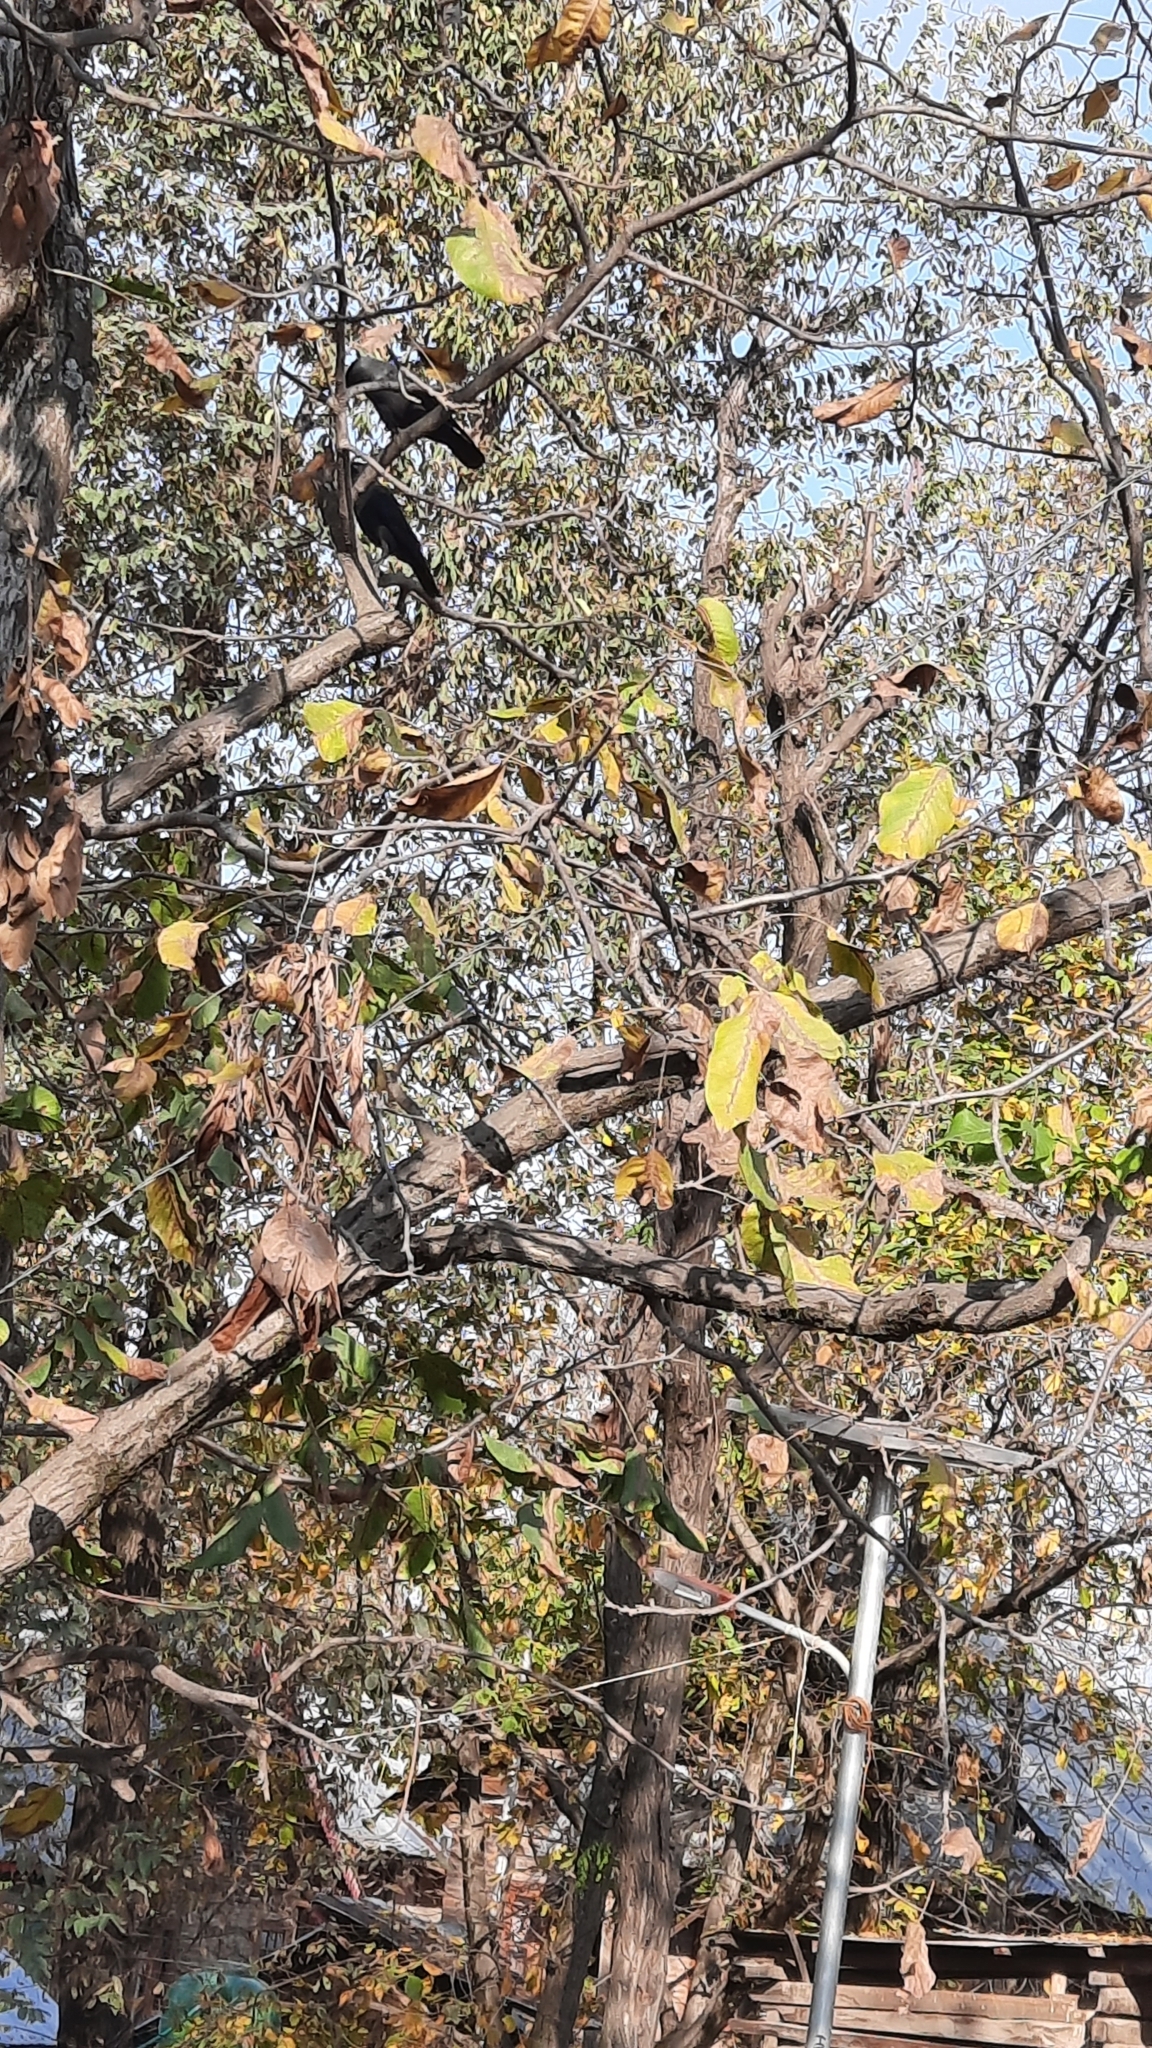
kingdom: Animalia
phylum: Chordata
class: Aves
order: Passeriformes
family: Corvidae
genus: Corvus
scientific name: Corvus splendens
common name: House crow
